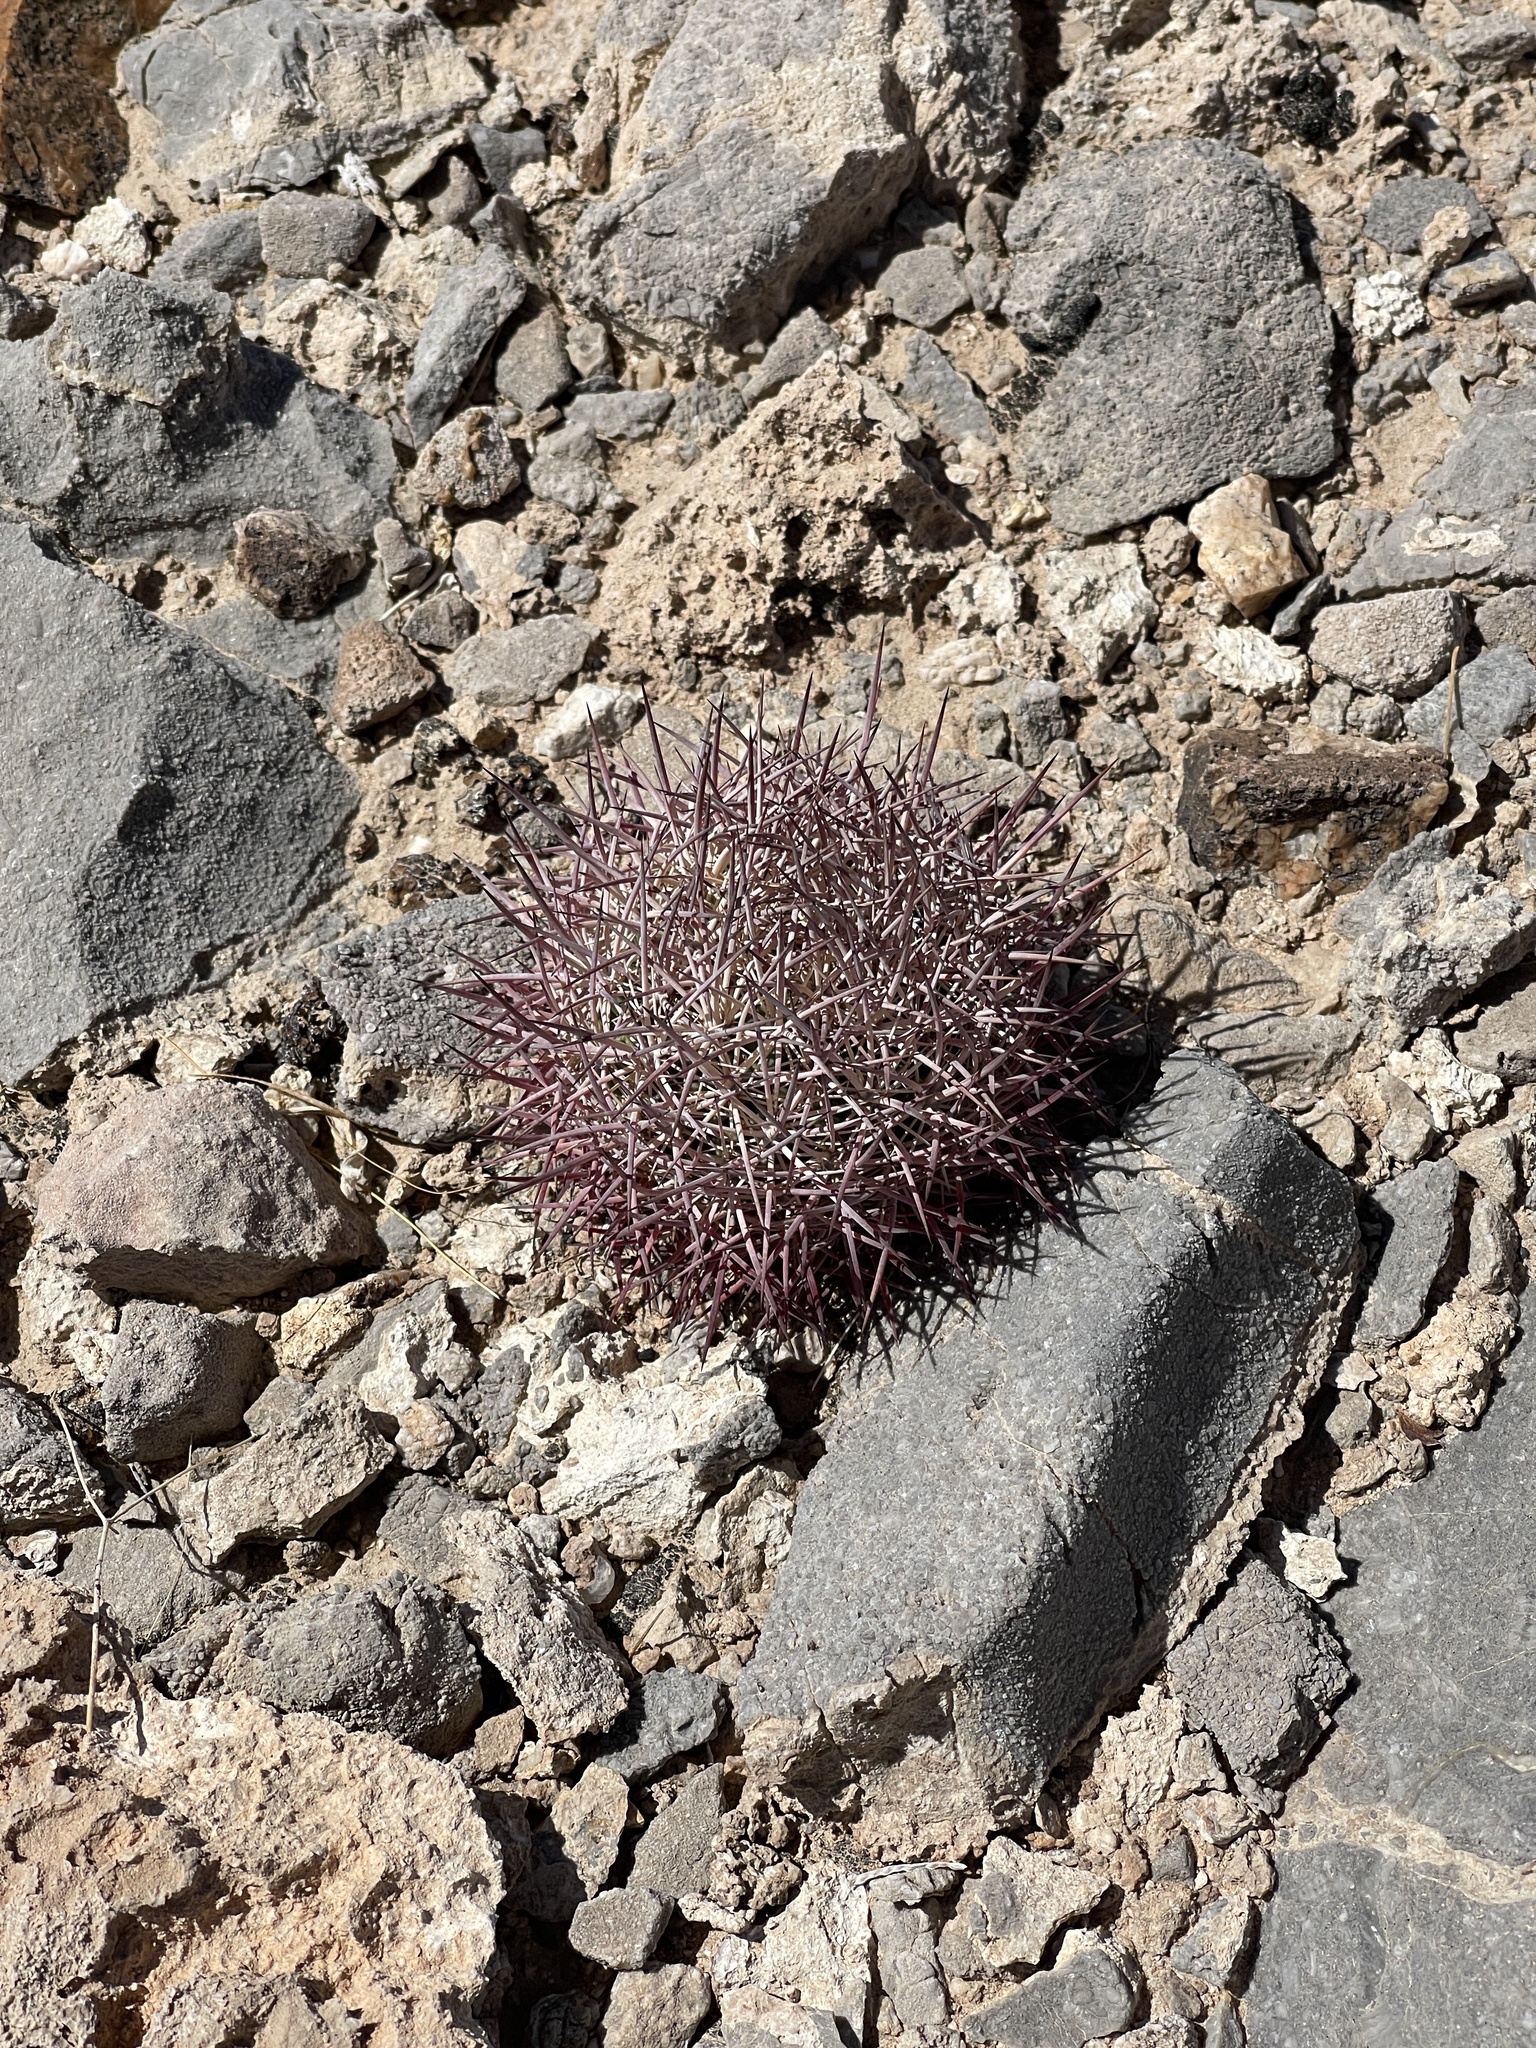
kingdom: Plantae
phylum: Tracheophyta
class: Magnoliopsida
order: Caryophyllales
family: Cactaceae
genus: Sclerocactus
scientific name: Sclerocactus johnsonii
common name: Eight-spine fishhook cactus
